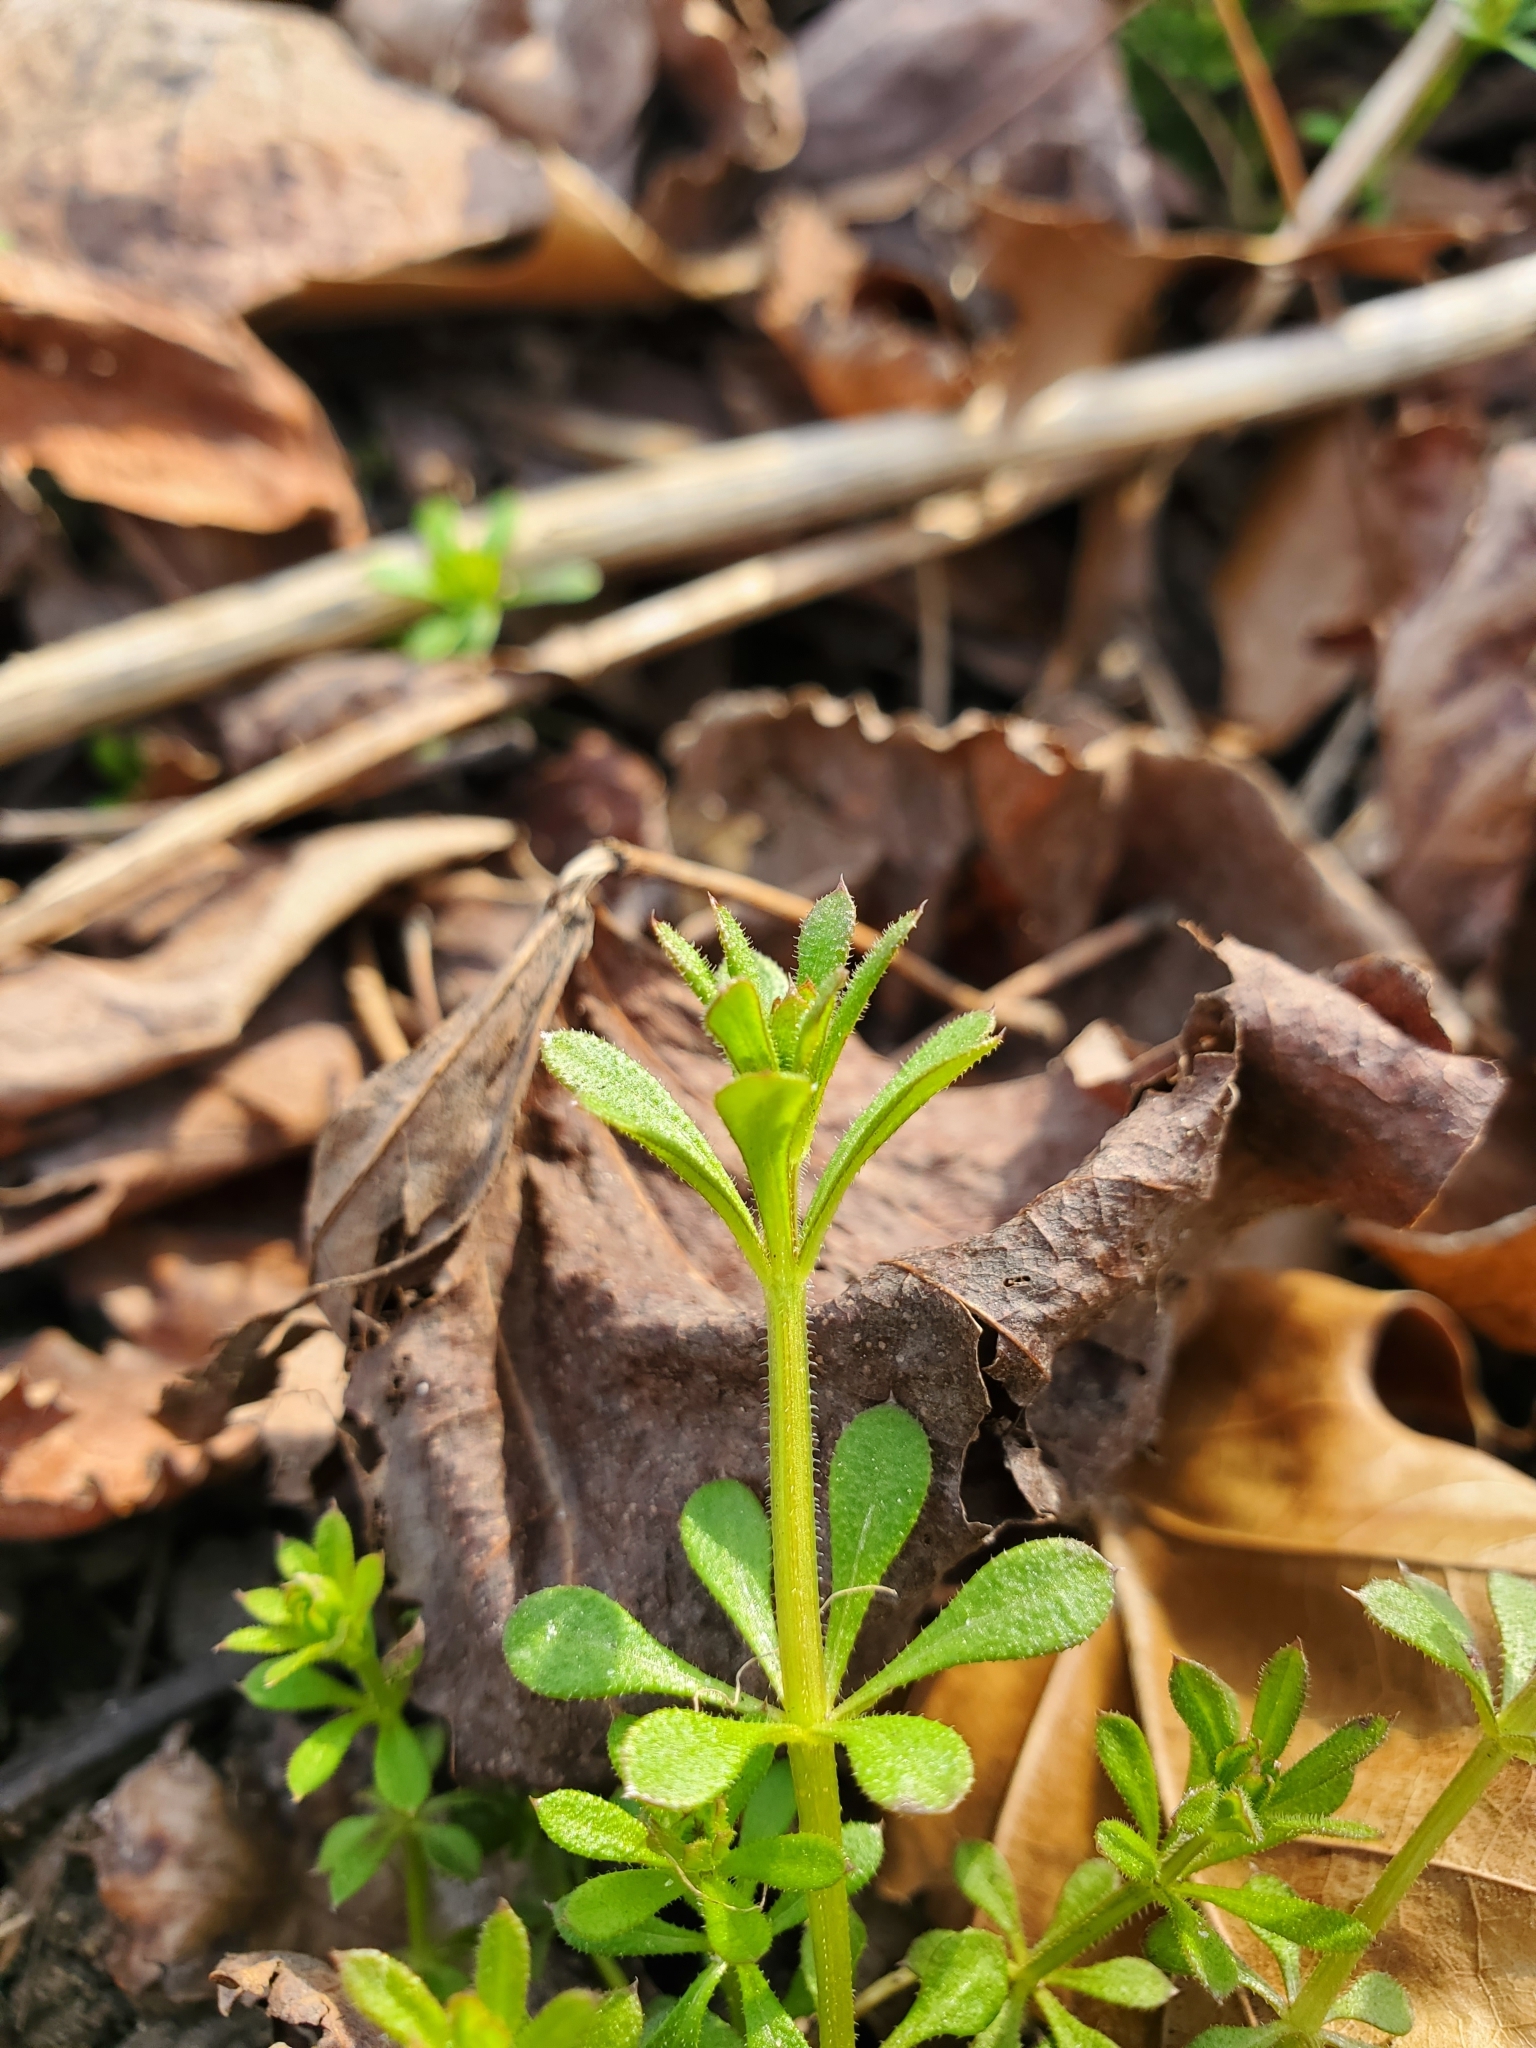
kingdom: Plantae
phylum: Tracheophyta
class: Magnoliopsida
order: Gentianales
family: Rubiaceae
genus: Galium
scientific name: Galium aparine
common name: Cleavers
